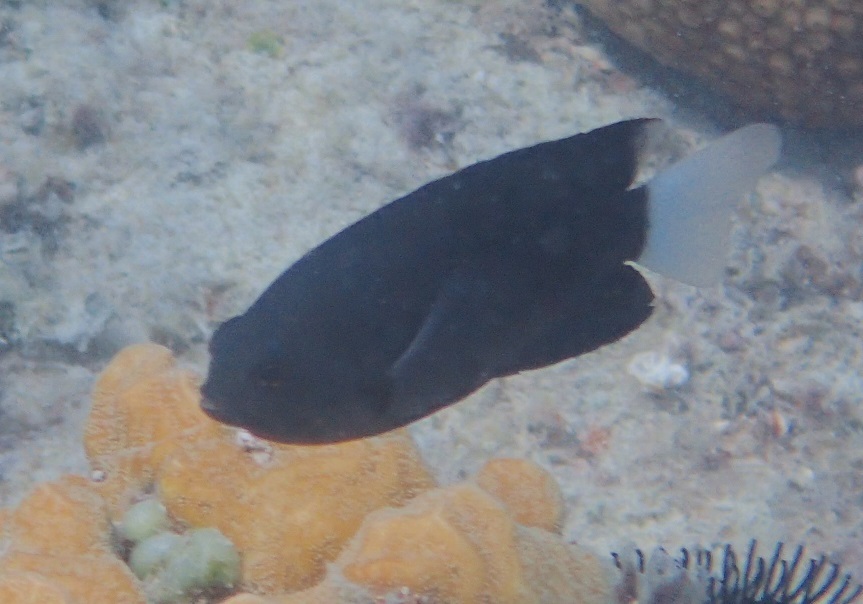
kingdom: Animalia
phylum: Chordata
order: Perciformes
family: Pomacentridae
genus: Pomacentrus
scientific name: Pomacentrus imitator
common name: Imitator damsel
